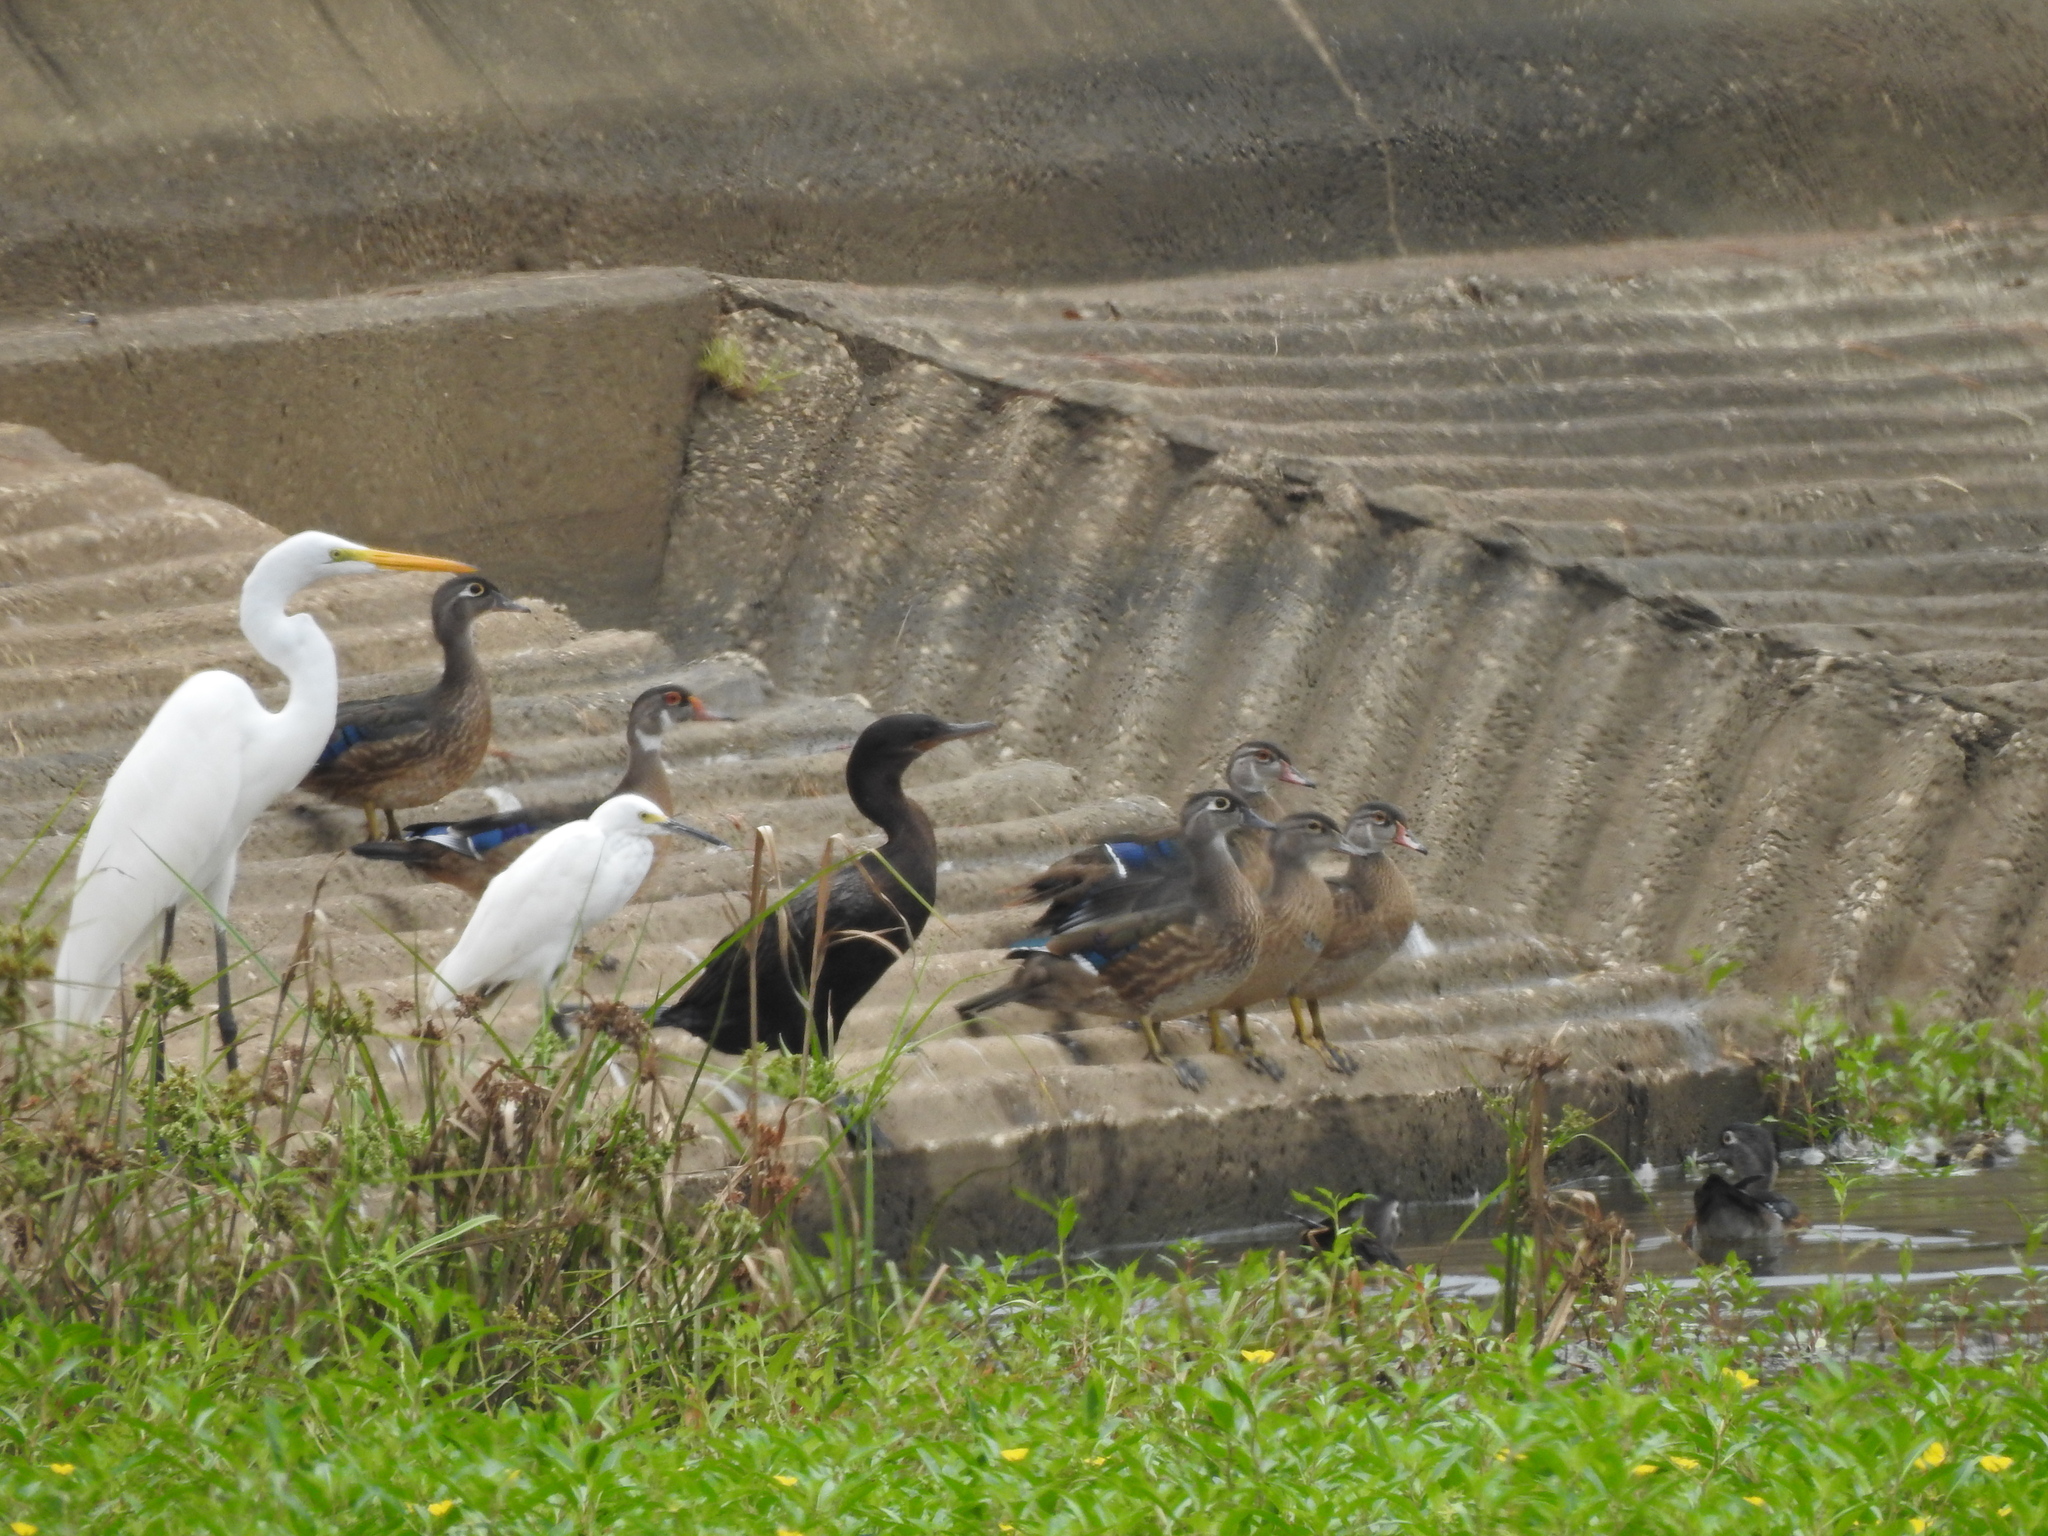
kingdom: Animalia
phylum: Chordata
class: Aves
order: Anseriformes
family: Anatidae
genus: Aix
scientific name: Aix sponsa
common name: Wood duck
